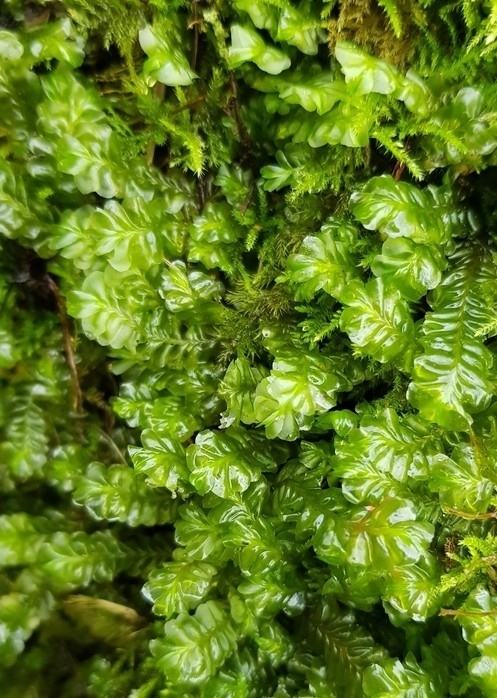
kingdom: Plantae
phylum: Marchantiophyta
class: Jungermanniopsida
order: Jungermanniales
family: Plagiochilaceae
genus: Plagiochila
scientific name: Plagiochila asplenioides
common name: Greater featherwort
